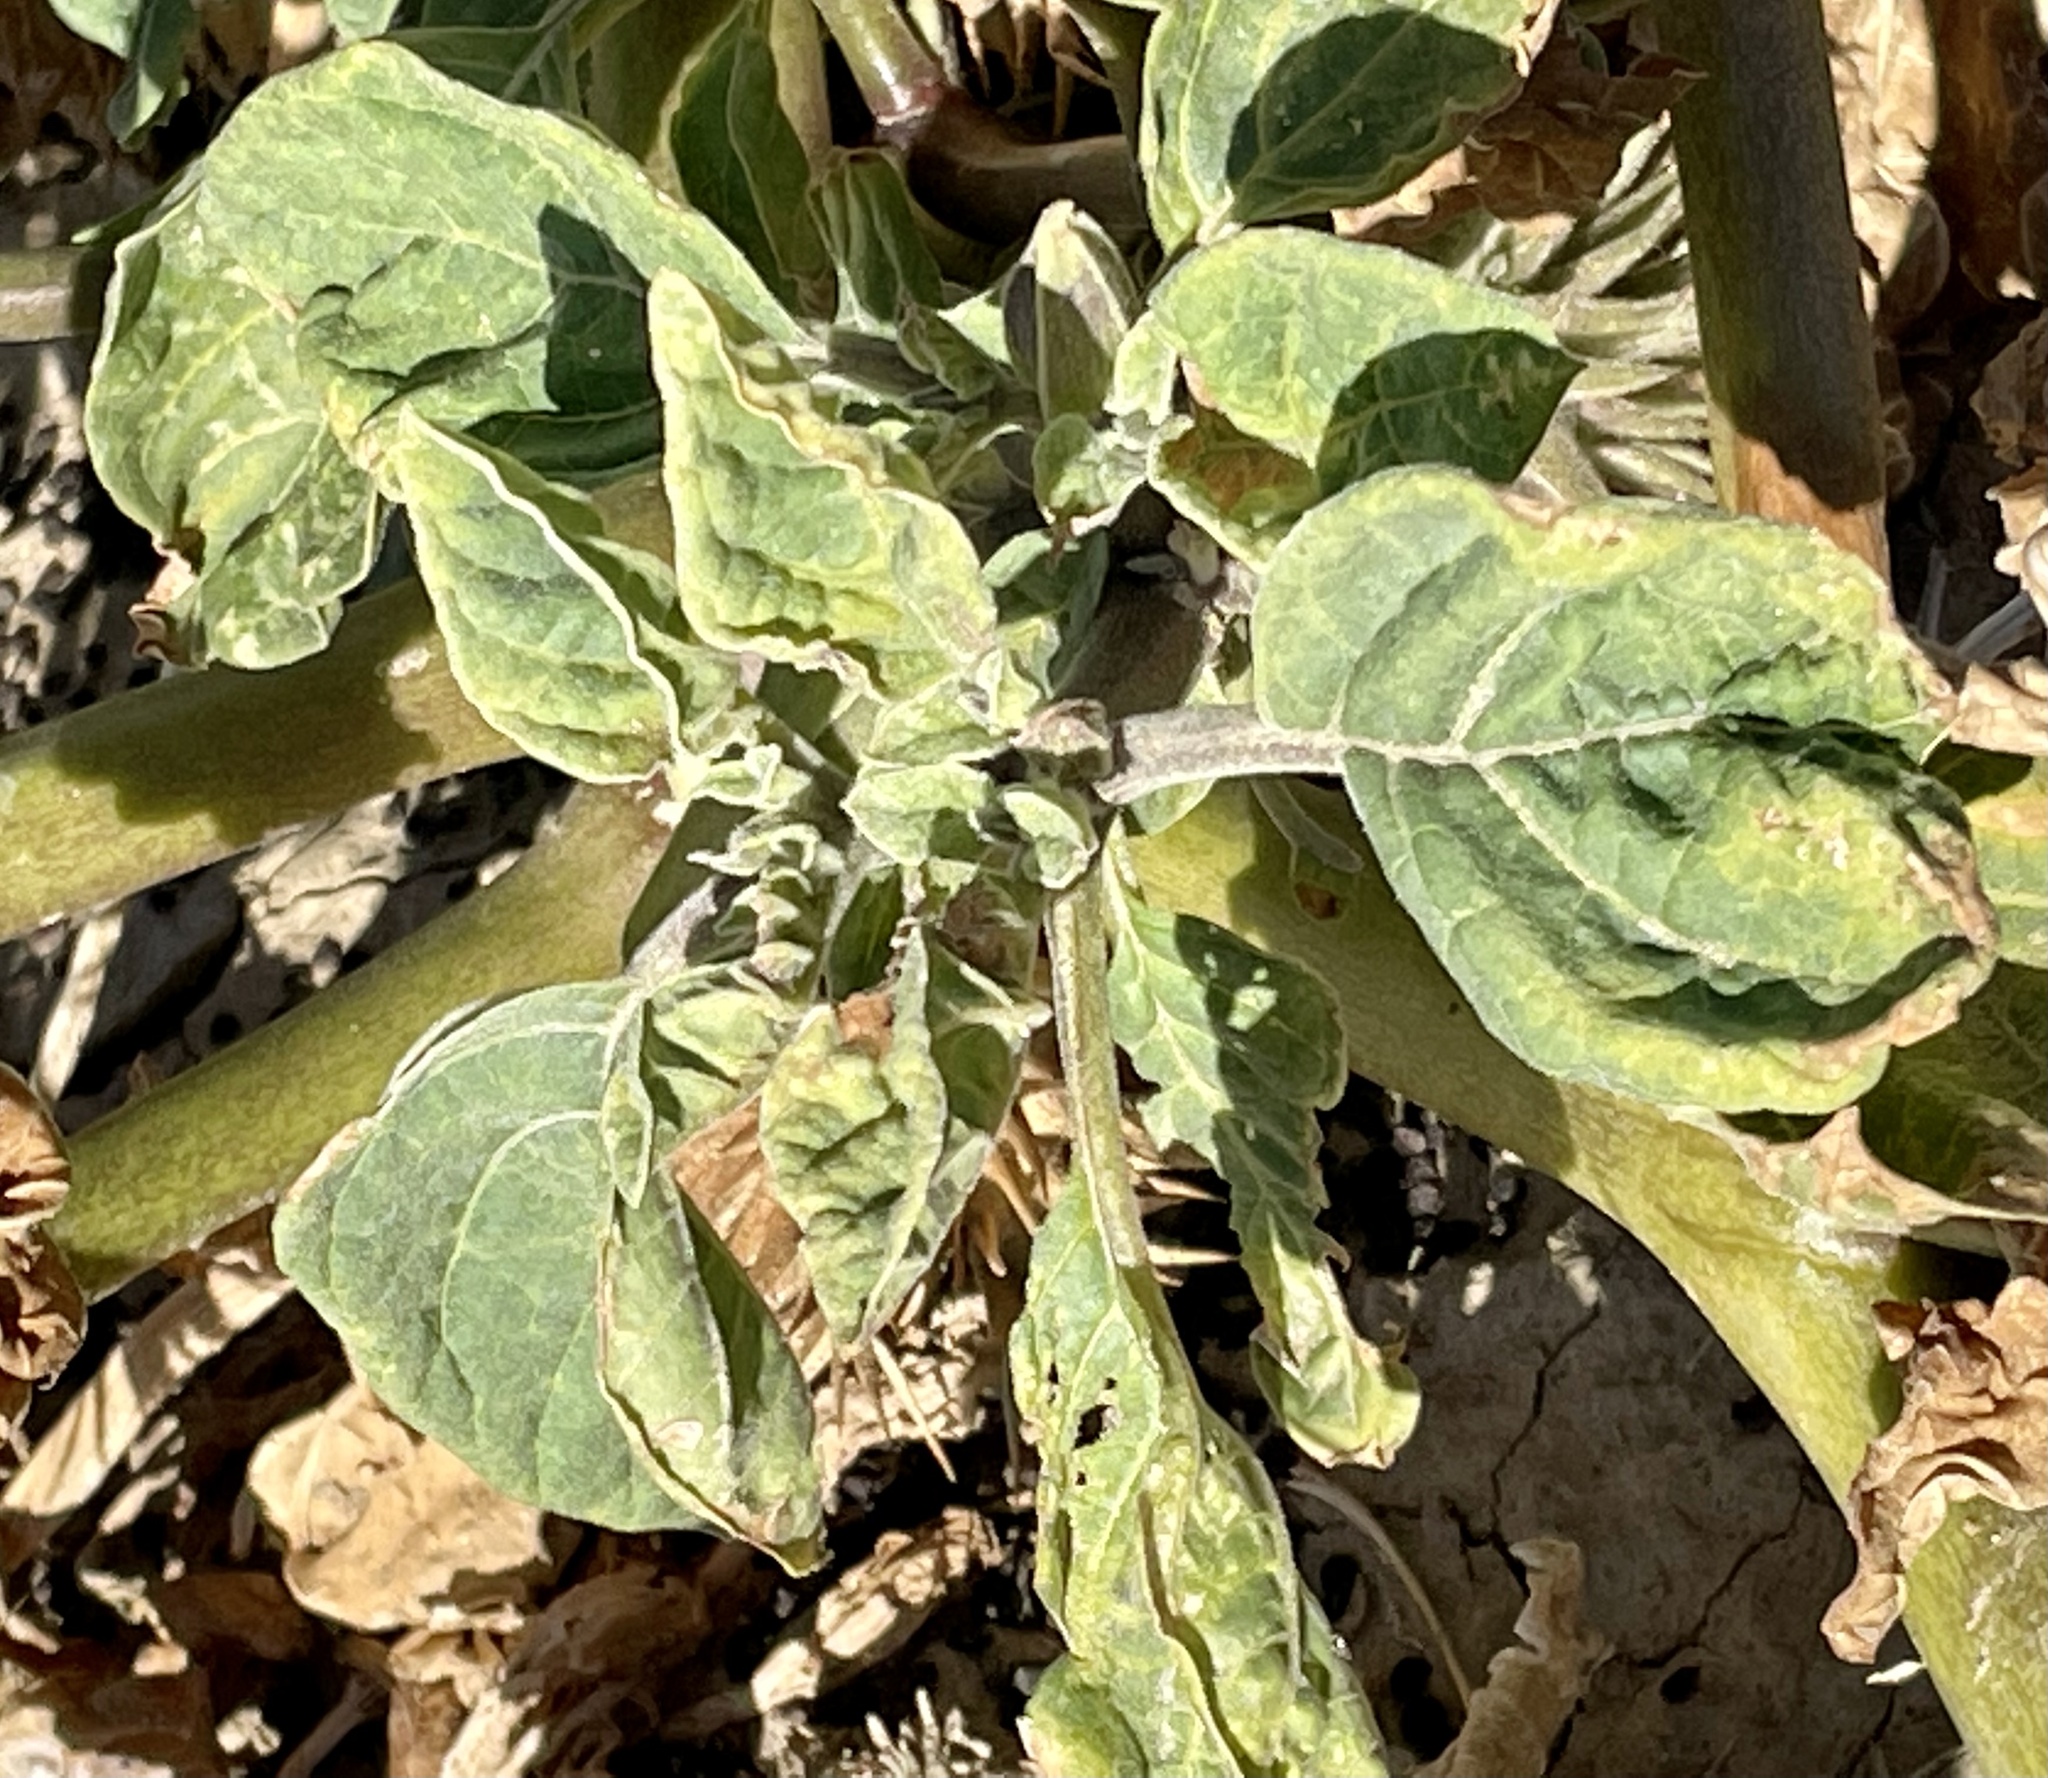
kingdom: Plantae
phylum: Tracheophyta
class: Magnoliopsida
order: Solanales
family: Solanaceae
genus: Datura
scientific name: Datura discolor
